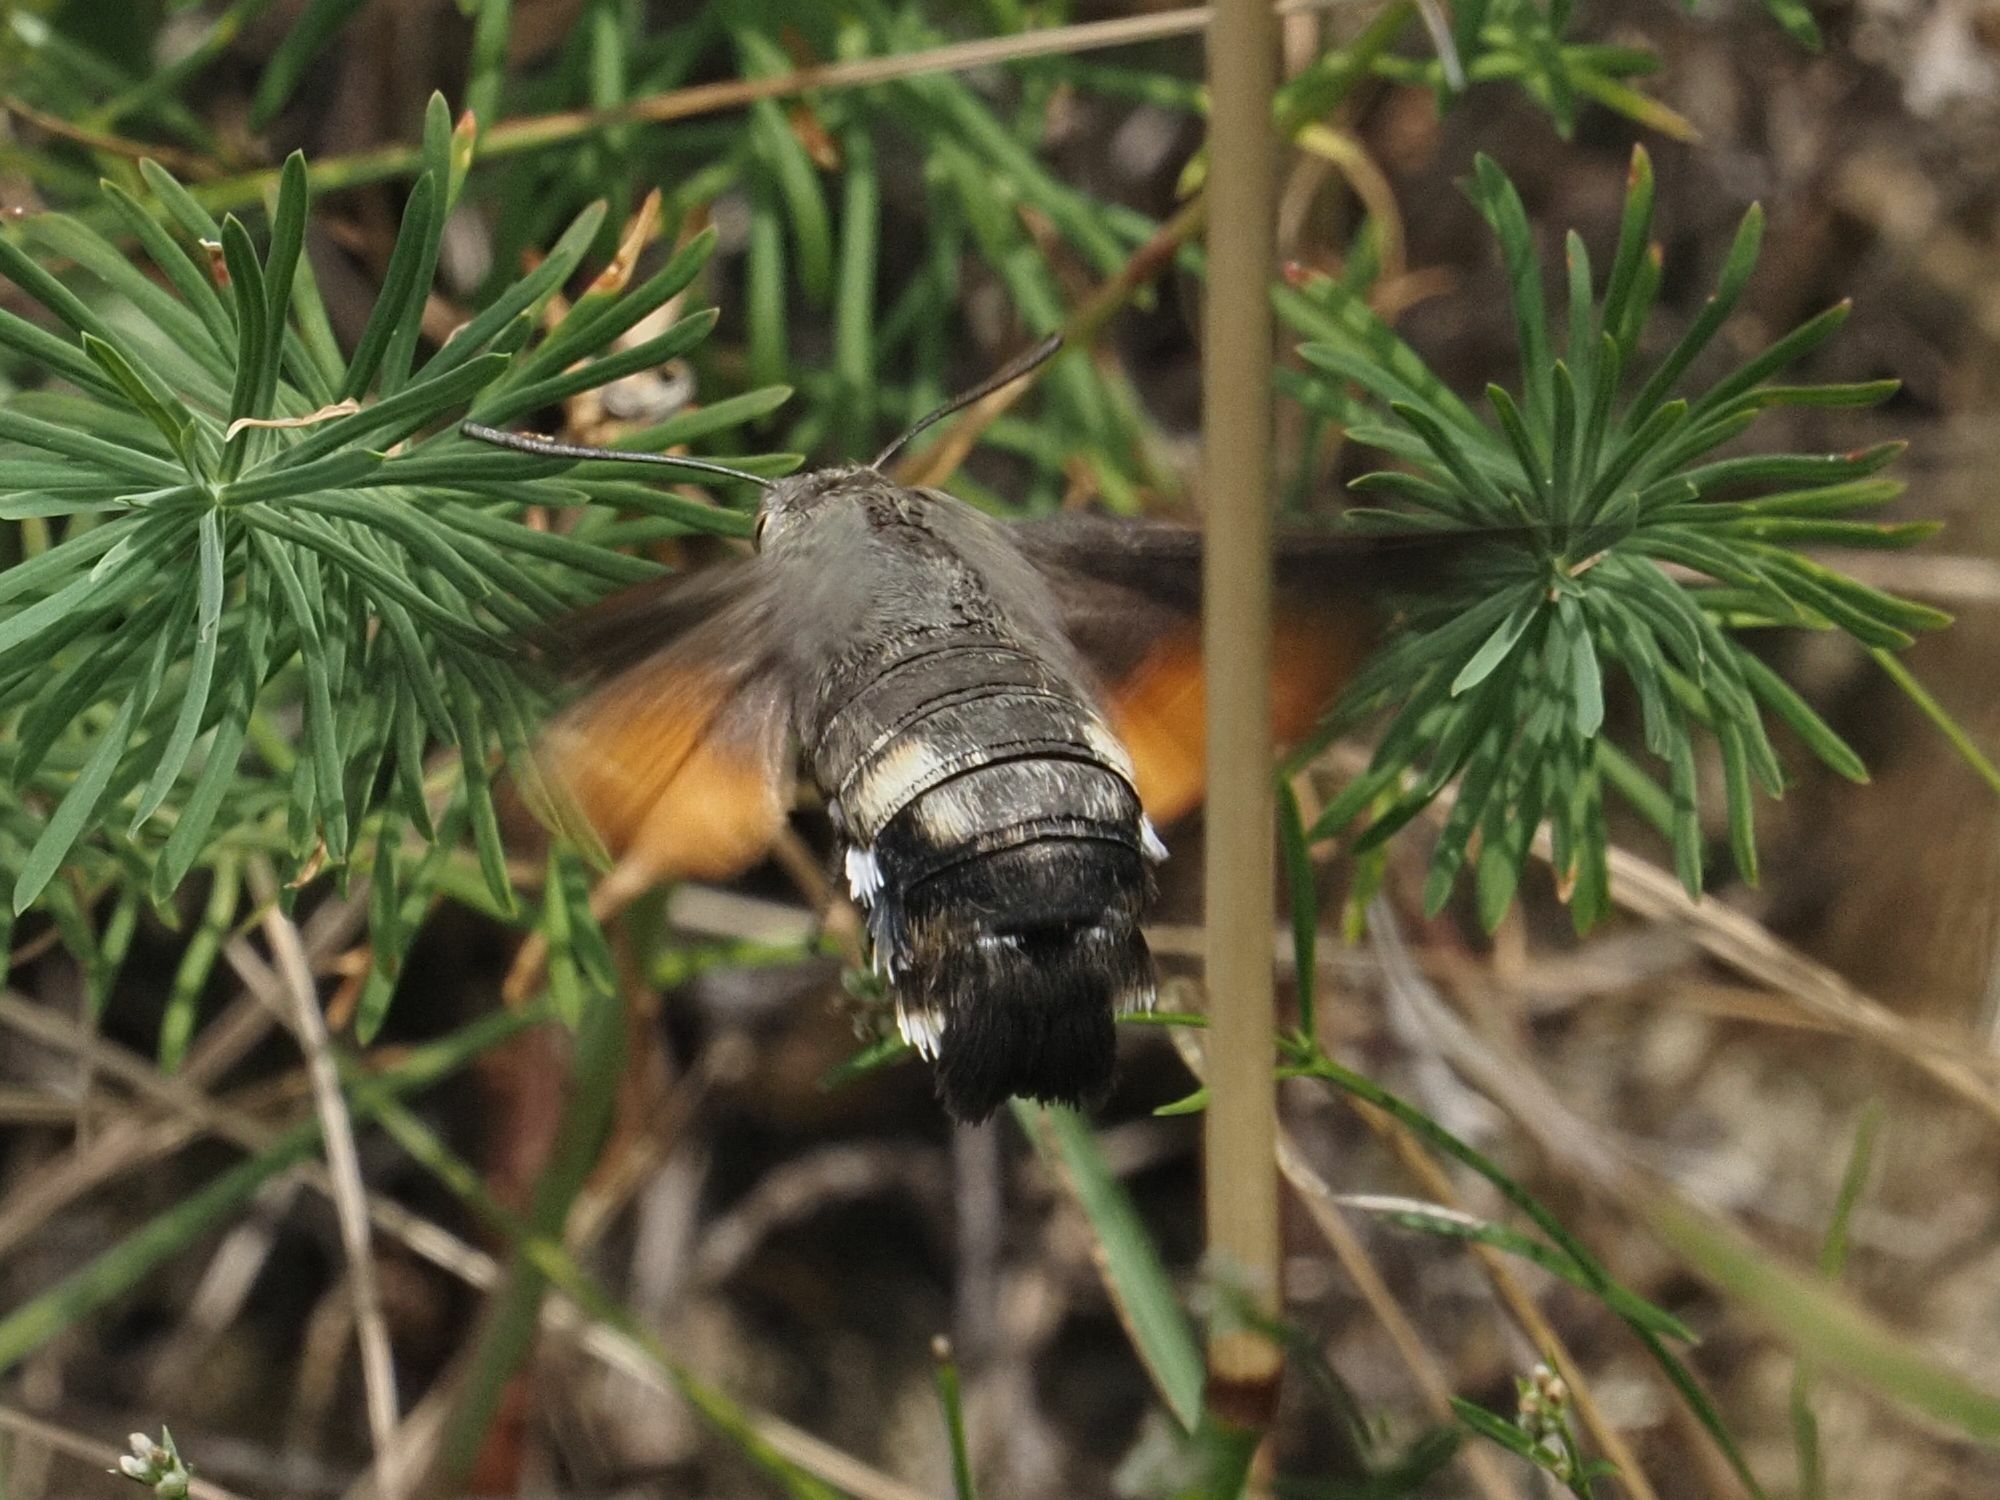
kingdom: Animalia
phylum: Arthropoda
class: Insecta
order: Lepidoptera
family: Sphingidae
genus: Macroglossum
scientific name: Macroglossum stellatarum
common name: Humming-bird hawk-moth
